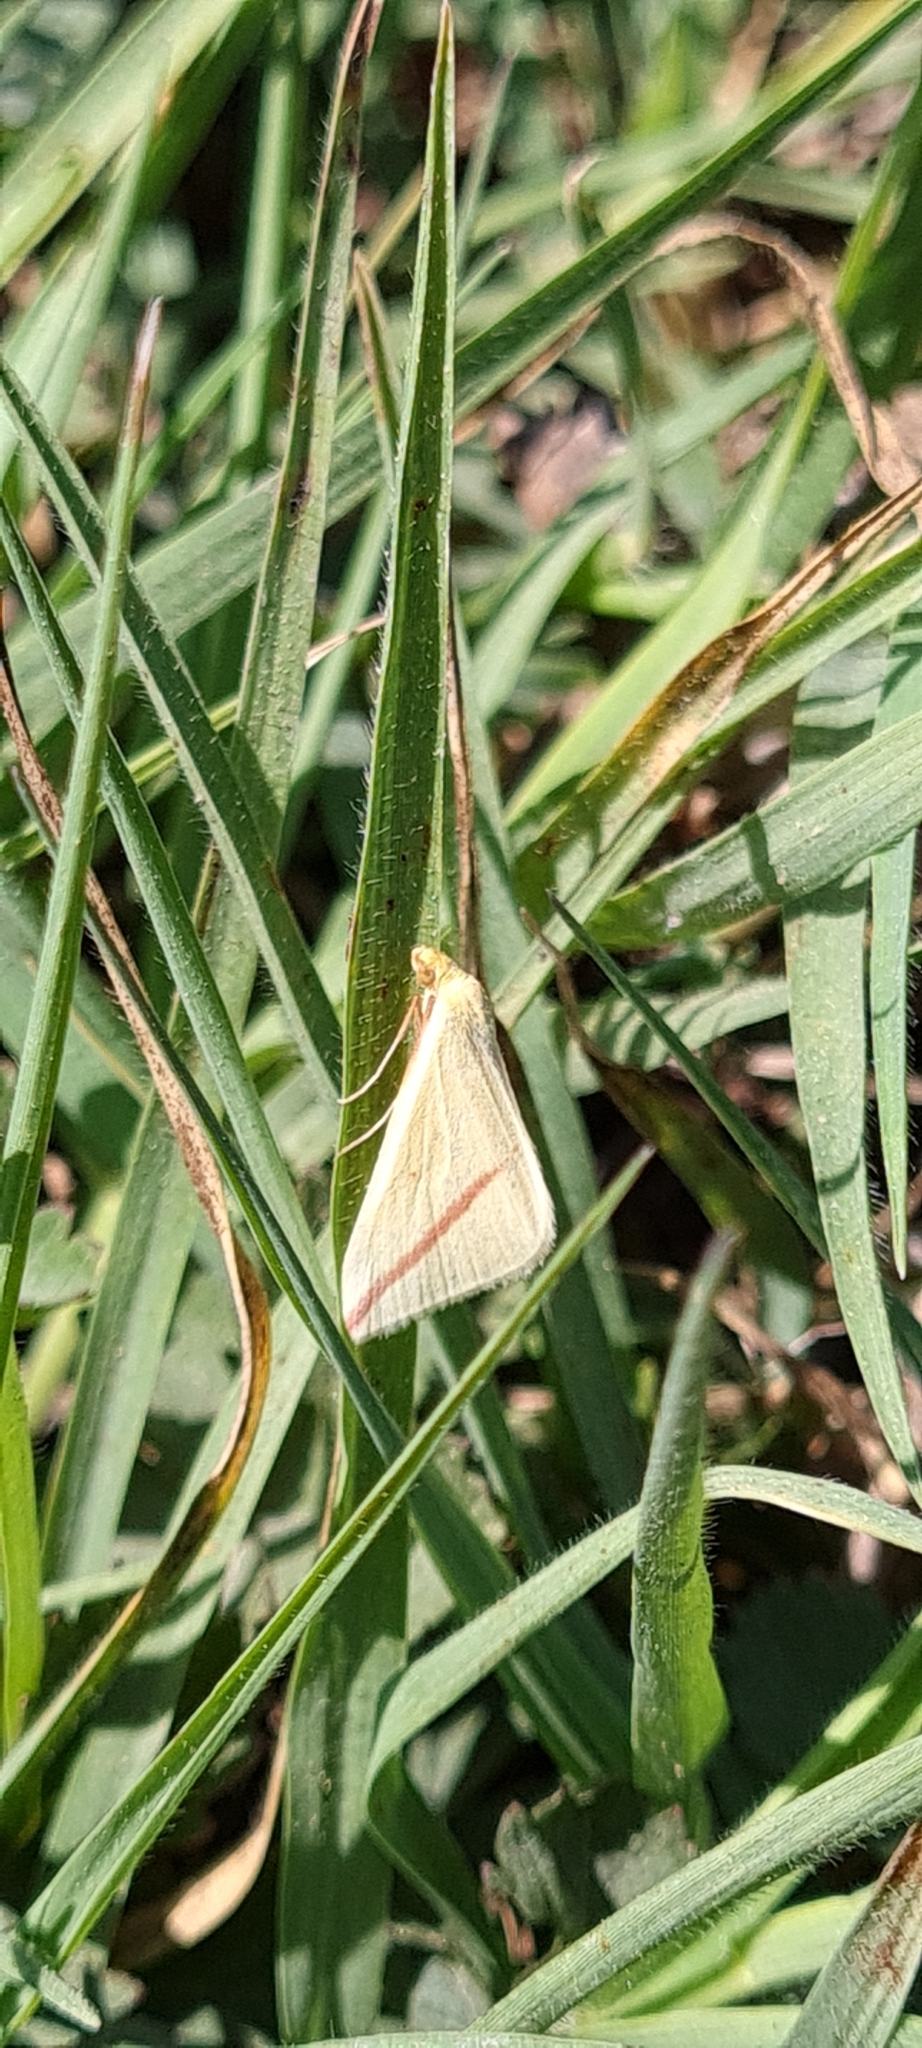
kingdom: Animalia
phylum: Arthropoda
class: Insecta
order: Lepidoptera
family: Geometridae
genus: Rhodometra
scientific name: Rhodometra sacraria
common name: Vestal
